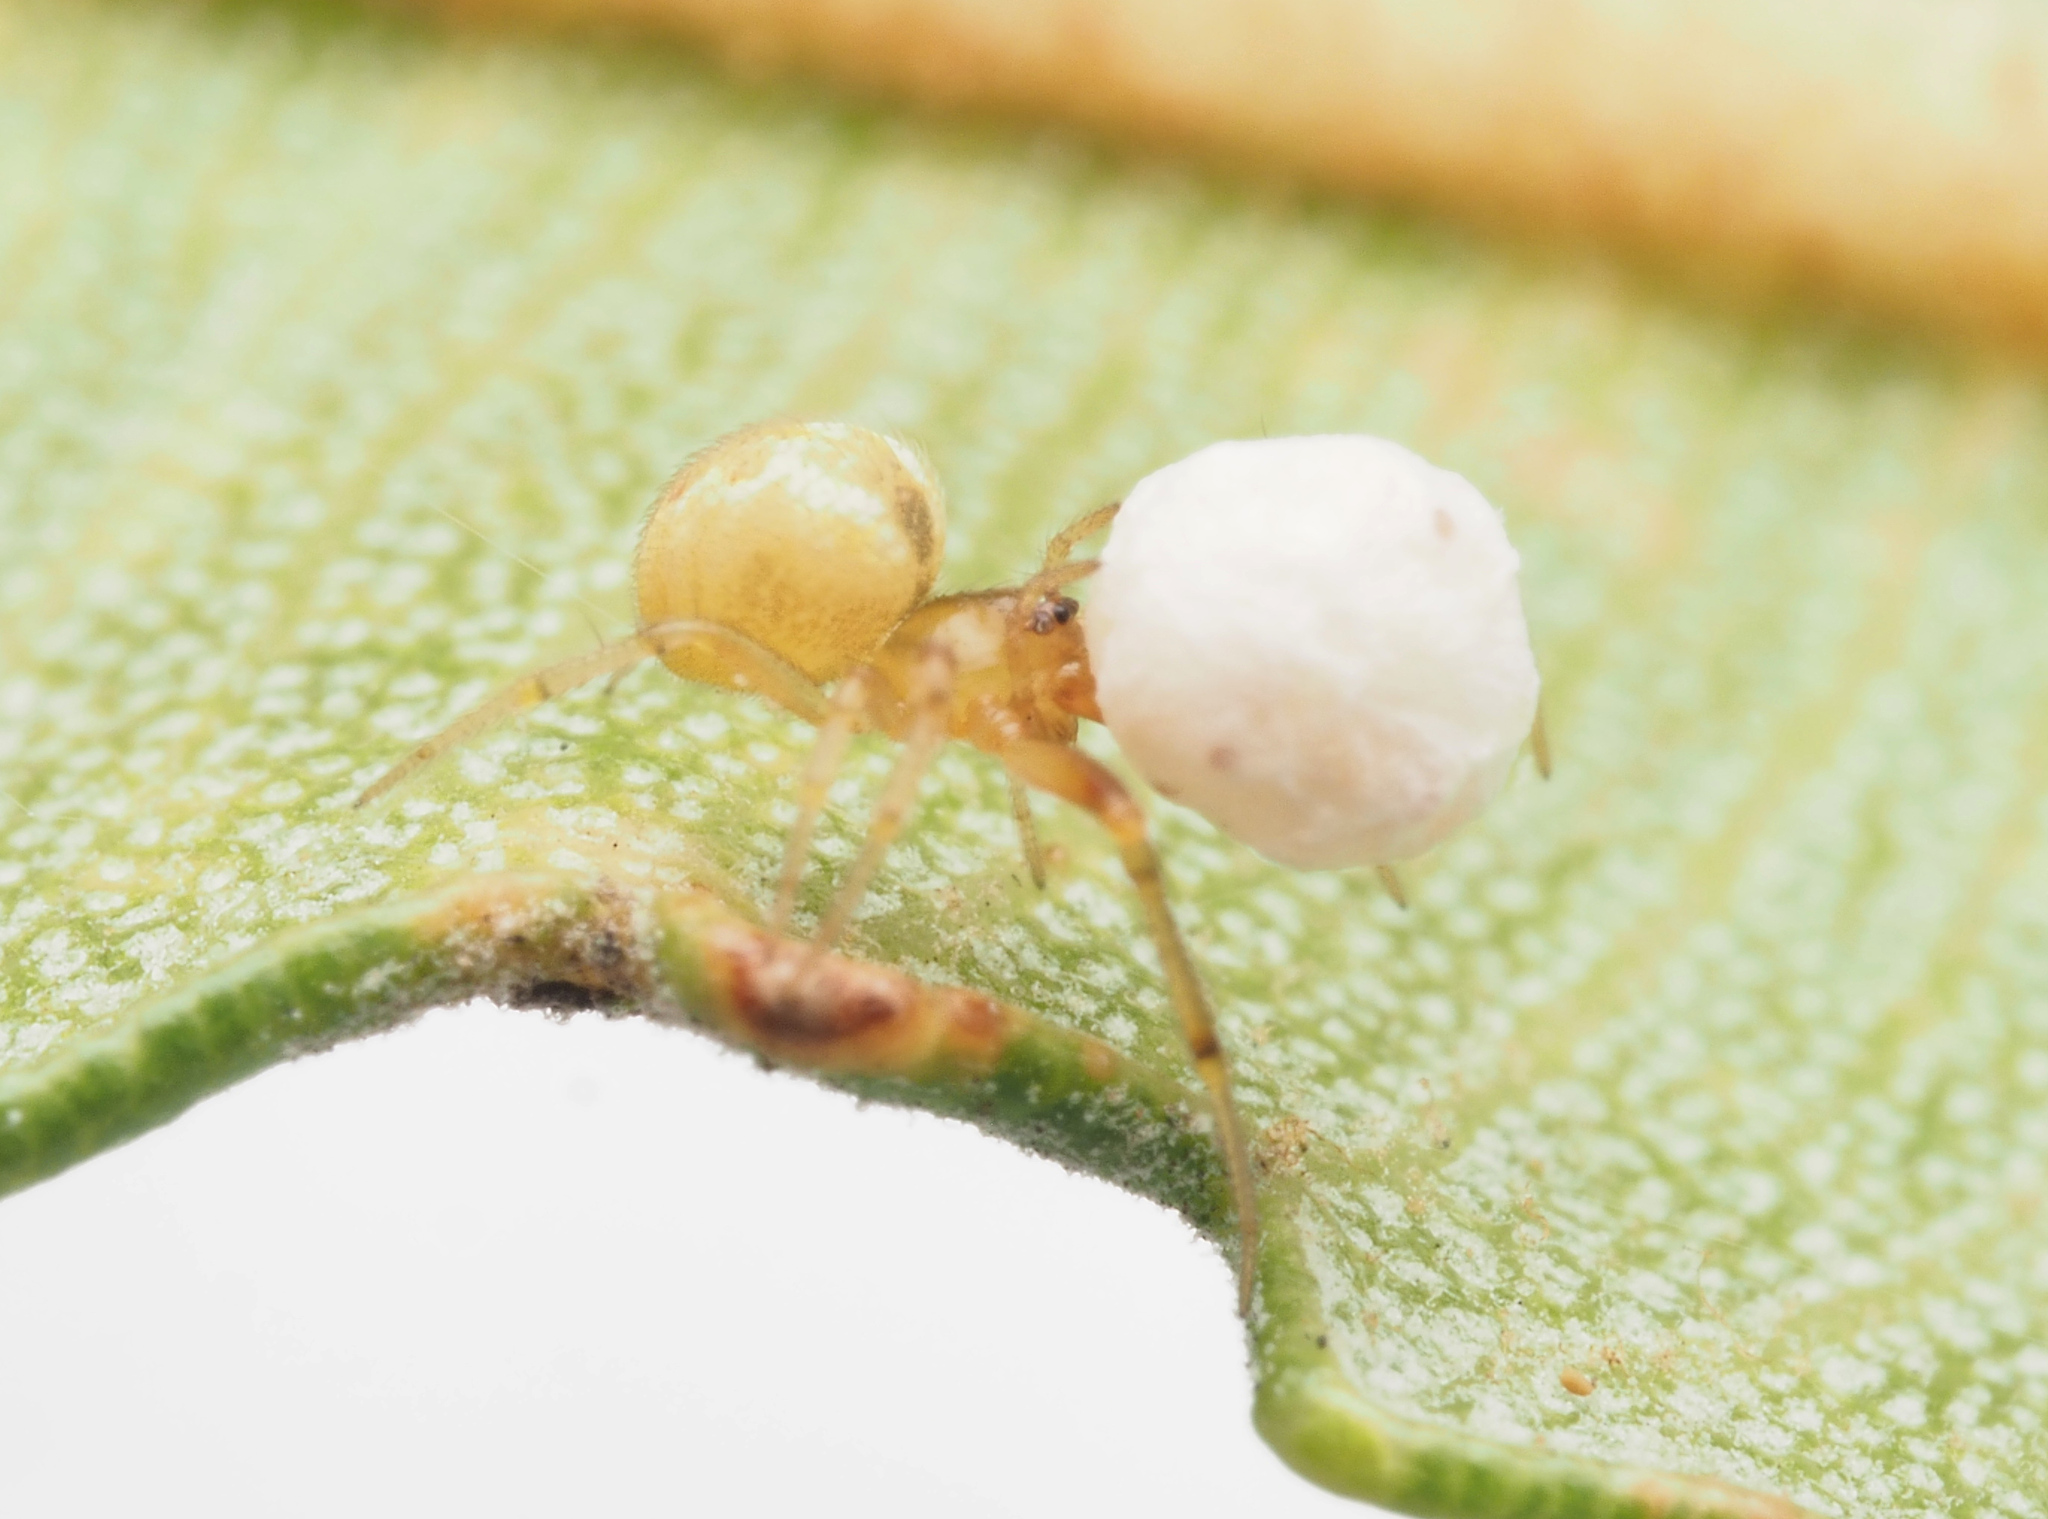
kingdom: Animalia
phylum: Arthropoda
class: Arachnida
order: Araneae
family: Theridiidae
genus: Anelosimus
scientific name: Anelosimus
